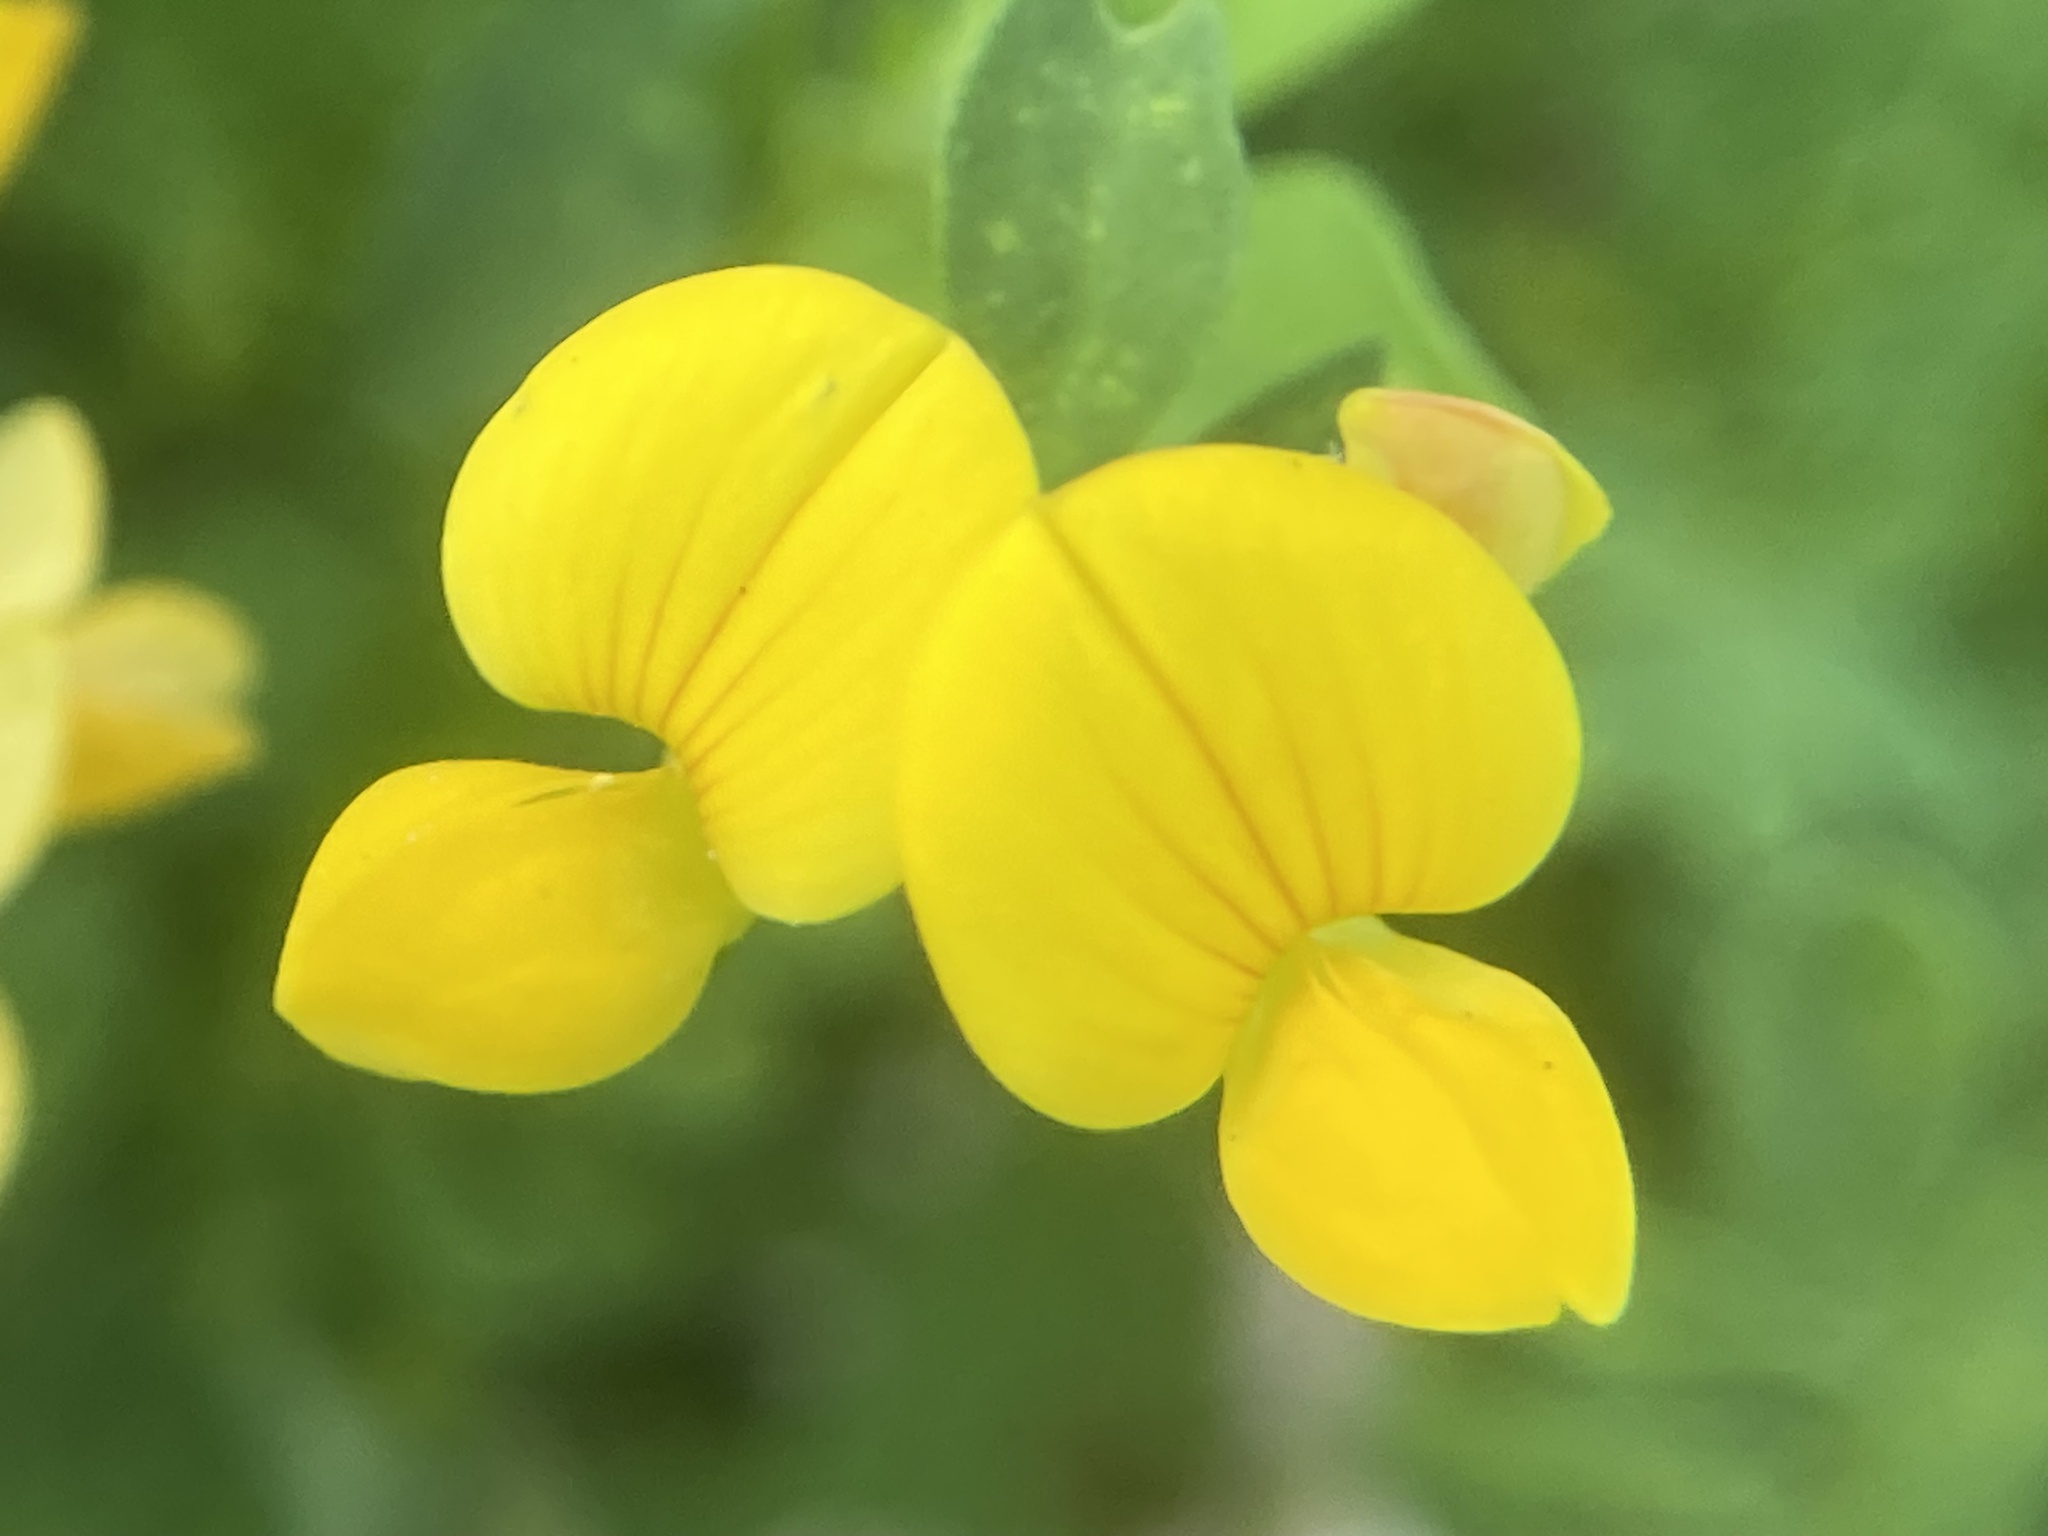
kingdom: Plantae
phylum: Tracheophyta
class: Magnoliopsida
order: Fabales
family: Fabaceae
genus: Lotus
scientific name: Lotus corniculatus
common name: Common bird's-foot-trefoil
